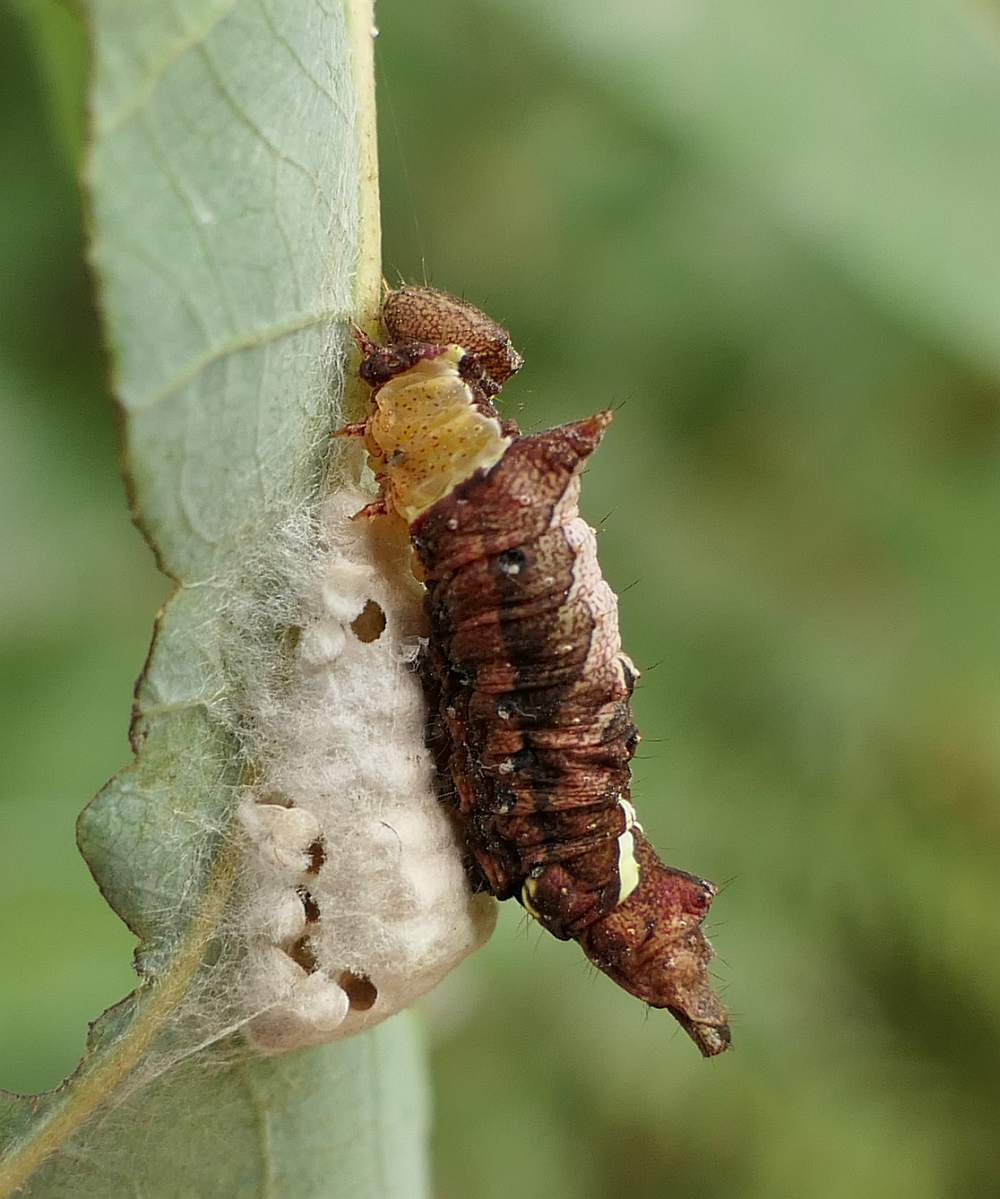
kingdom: Animalia
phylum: Arthropoda
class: Insecta
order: Lepidoptera
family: Notodontidae
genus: Schizura
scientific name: Schizura
